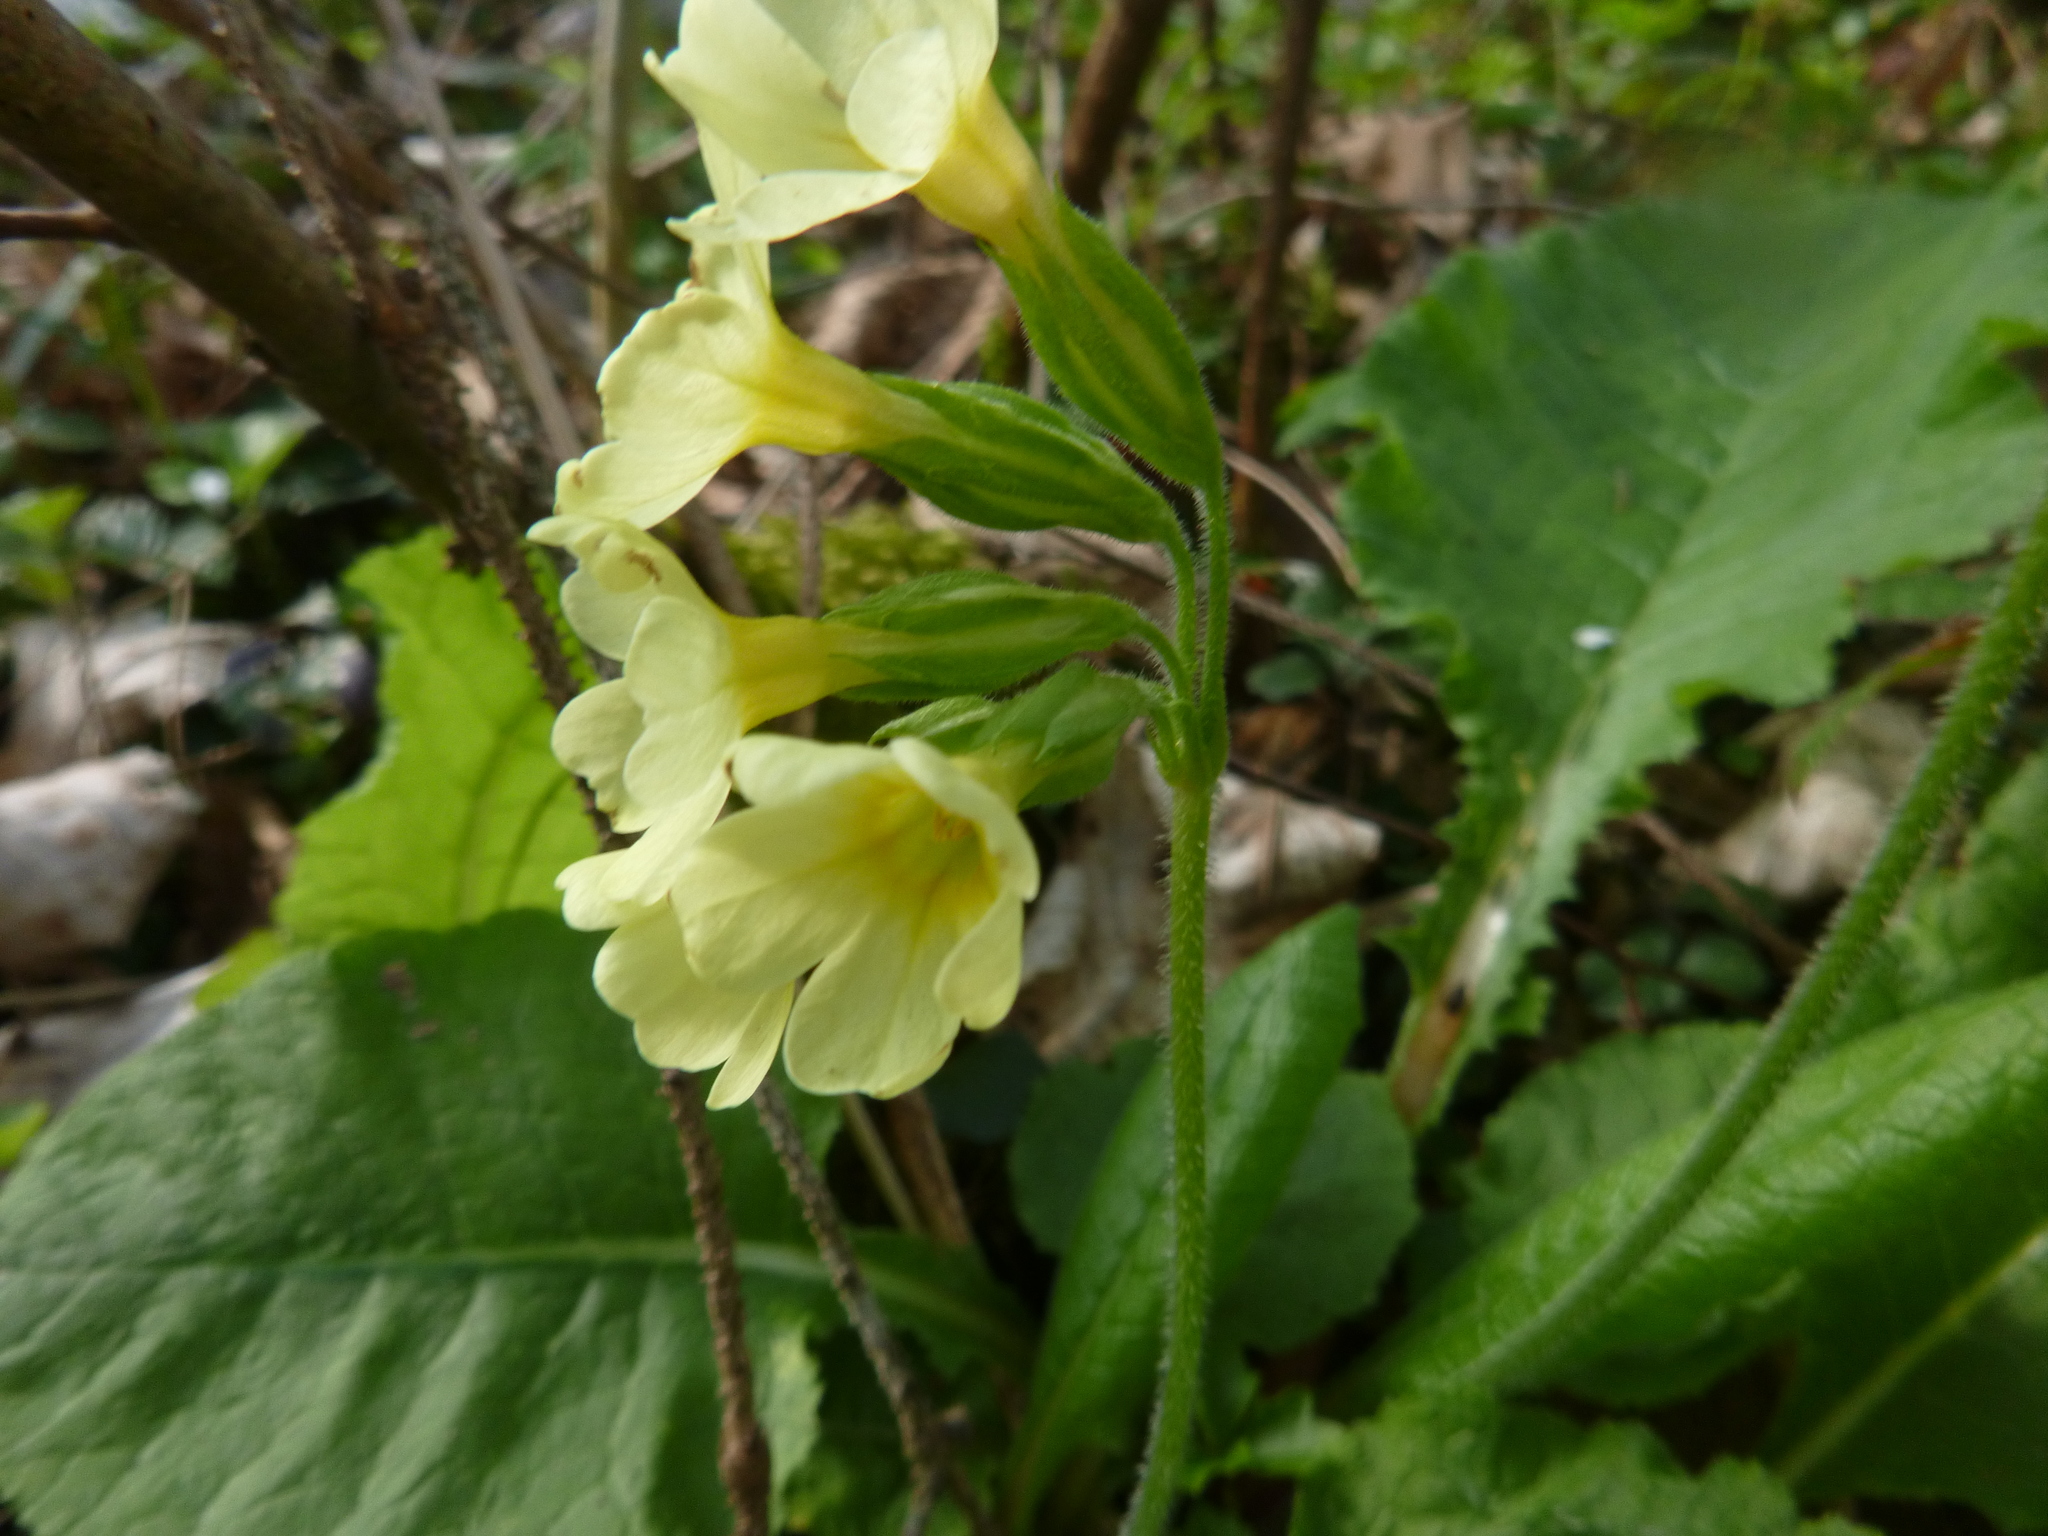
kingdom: Plantae
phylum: Tracheophyta
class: Magnoliopsida
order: Ericales
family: Primulaceae
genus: Primula
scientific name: Primula elatior
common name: Oxlip
